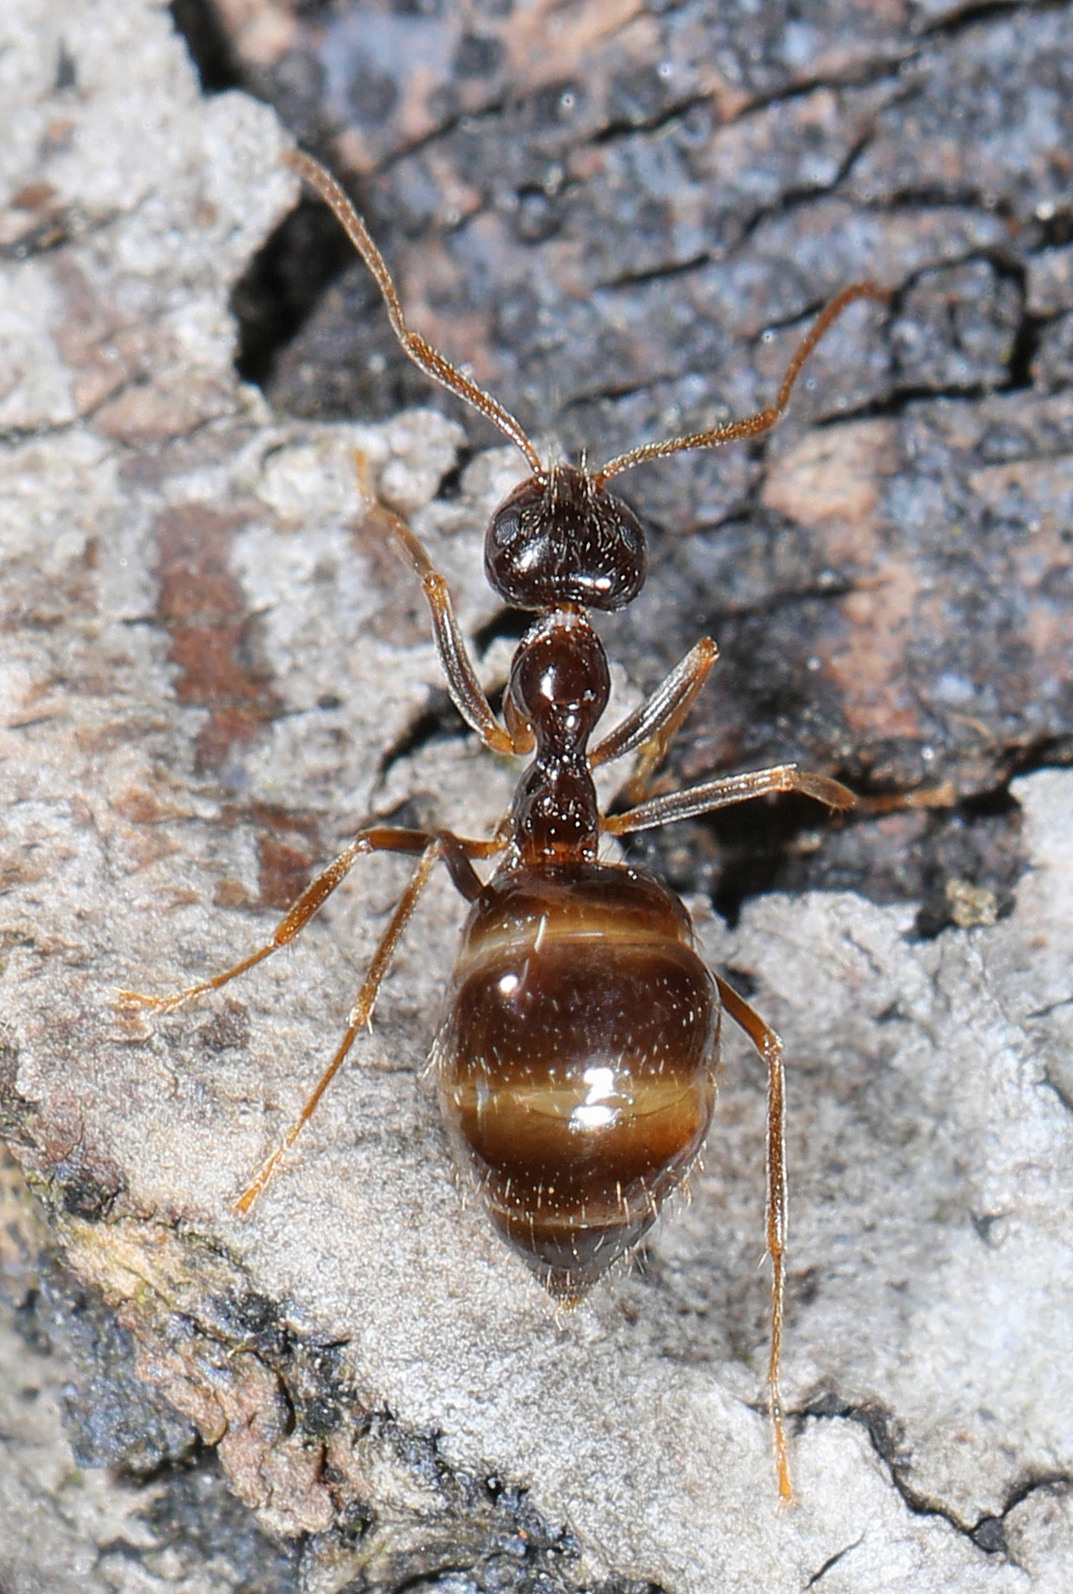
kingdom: Animalia
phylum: Arthropoda
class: Insecta
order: Hymenoptera
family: Formicidae
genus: Prenolepis
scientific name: Prenolepis imparis
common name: Small honey ant
